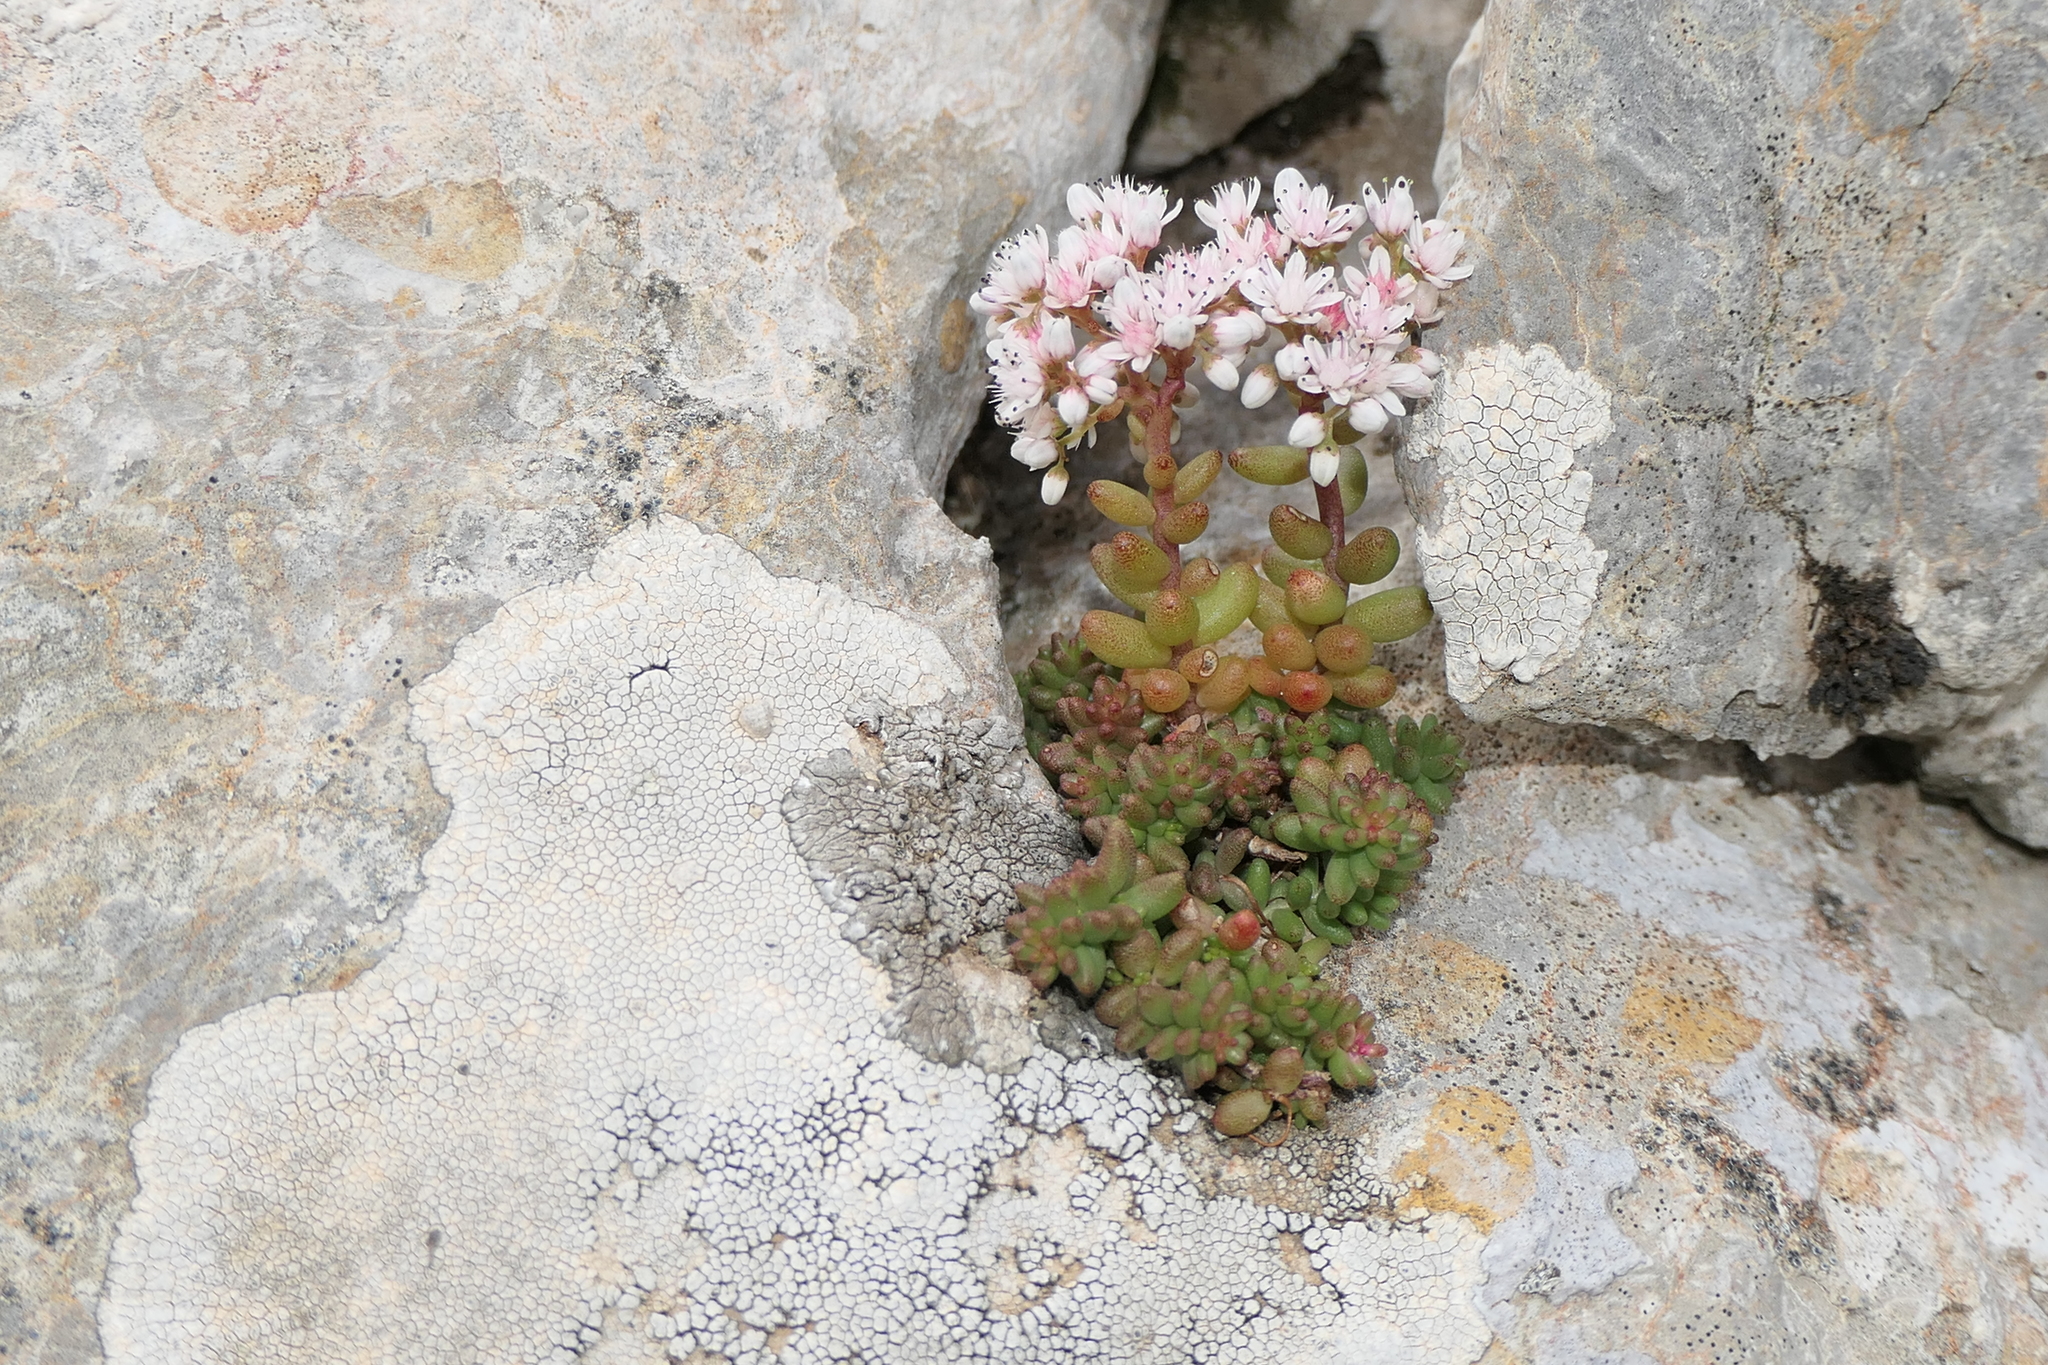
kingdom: Plantae
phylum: Tracheophyta
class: Magnoliopsida
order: Saxifragales
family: Crassulaceae
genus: Sedum
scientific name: Sedum album
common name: White stonecrop
